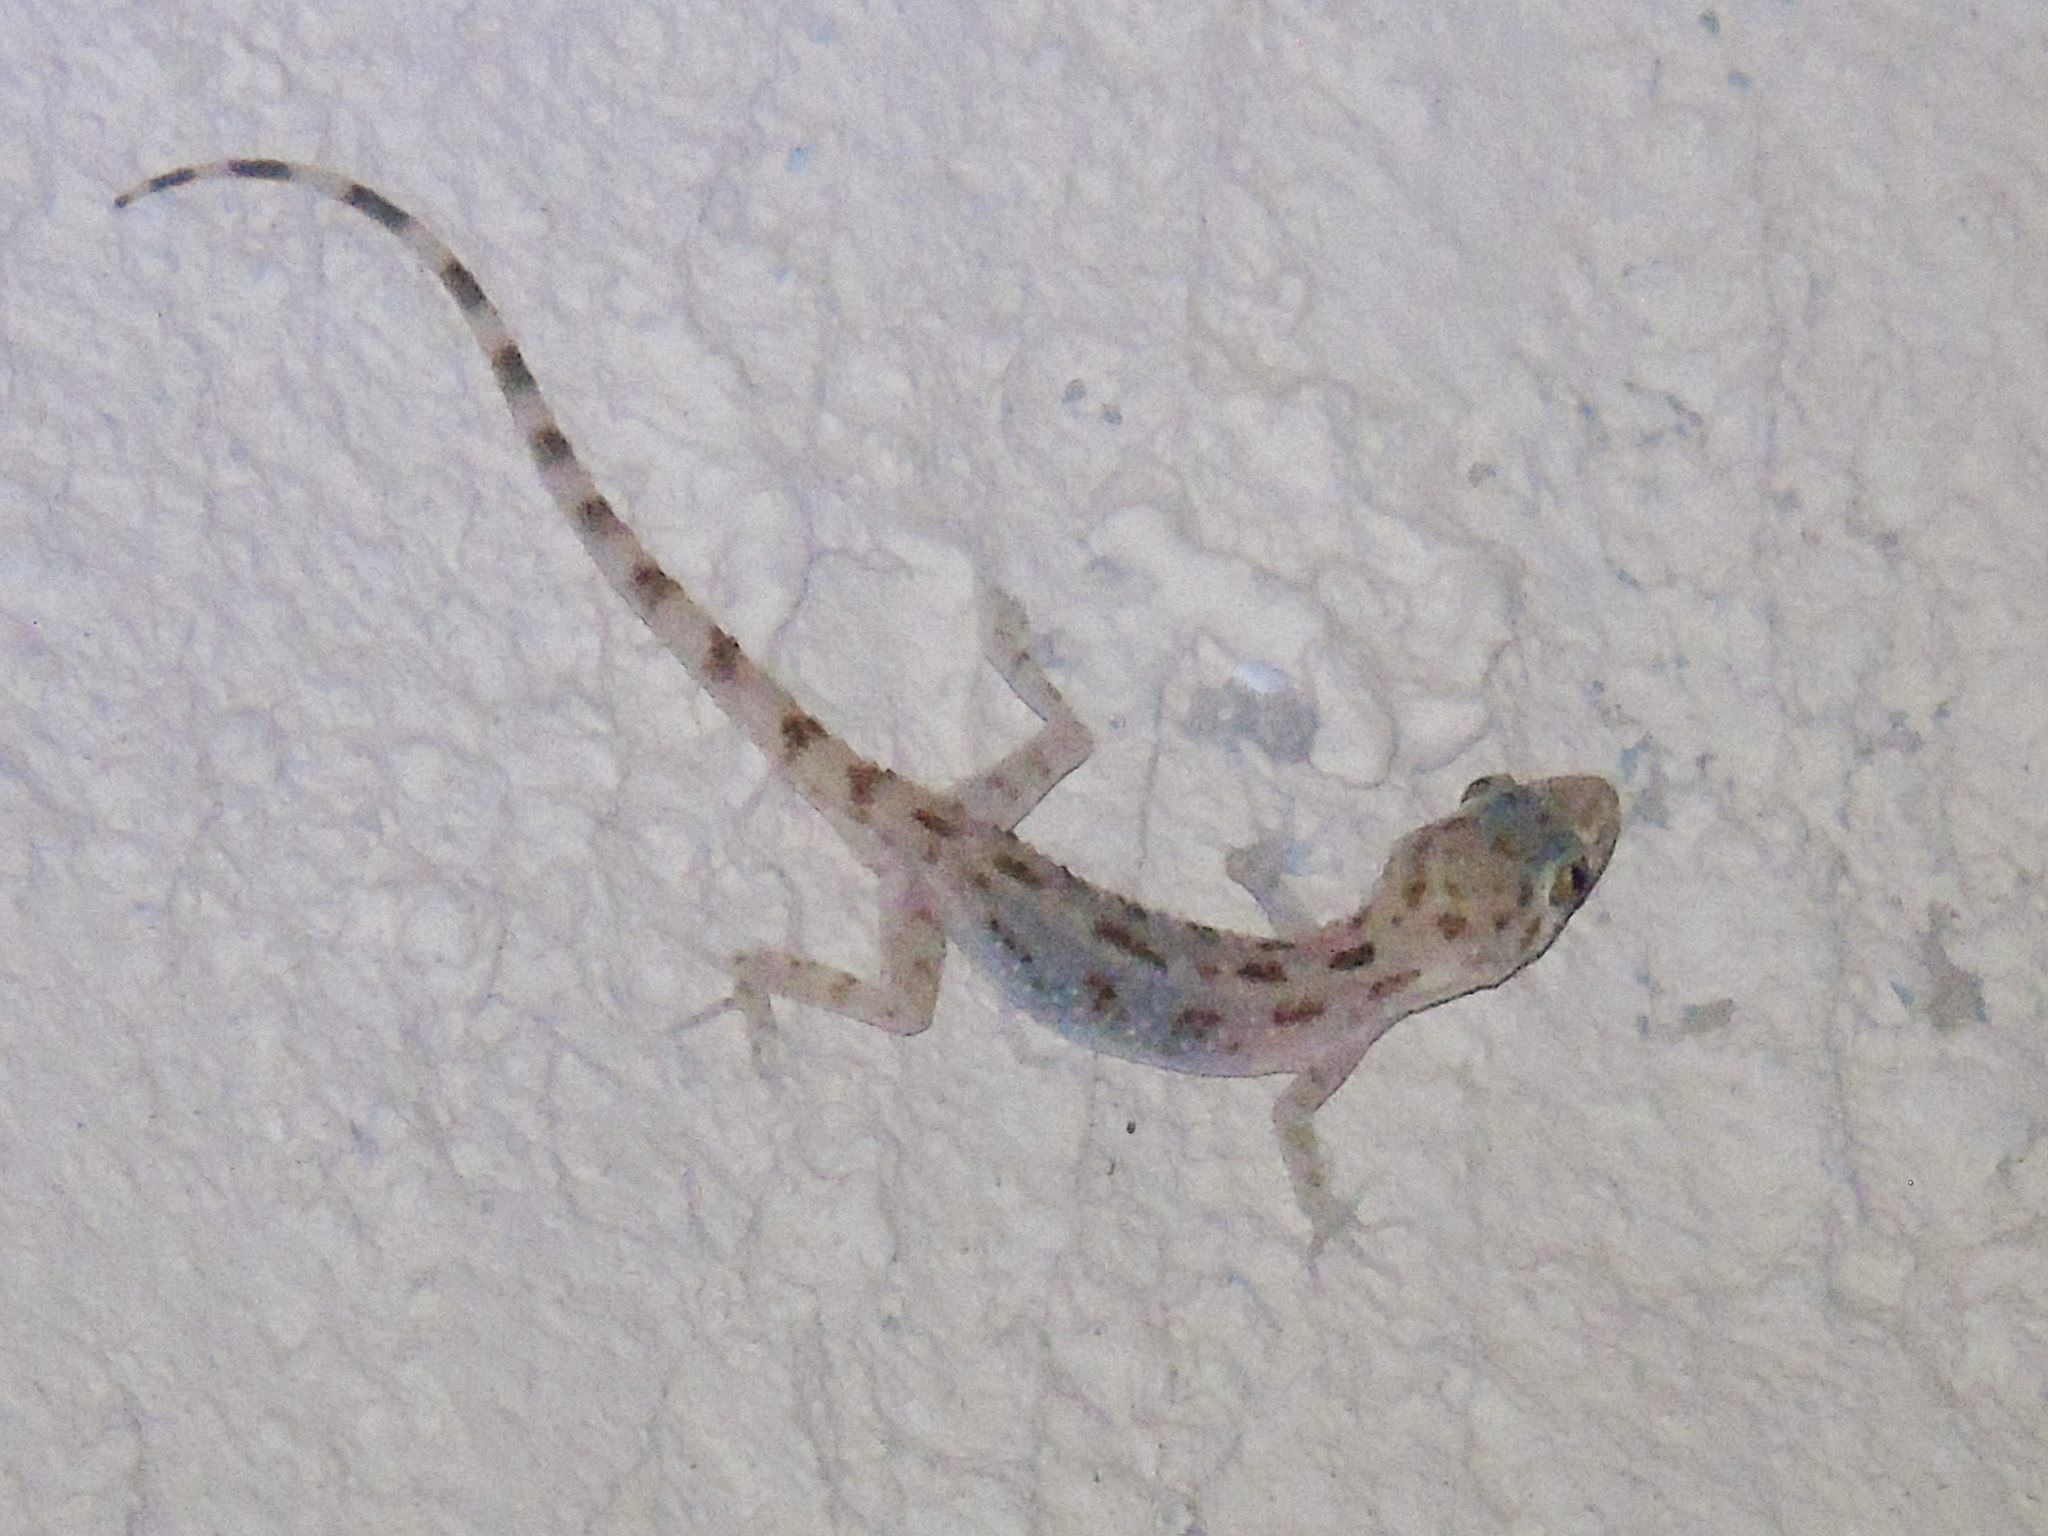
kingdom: Animalia
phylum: Chordata
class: Squamata
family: Gekkonidae
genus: Cyrtopodion
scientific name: Cyrtopodion scabrum
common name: Rough-tailed gecko
